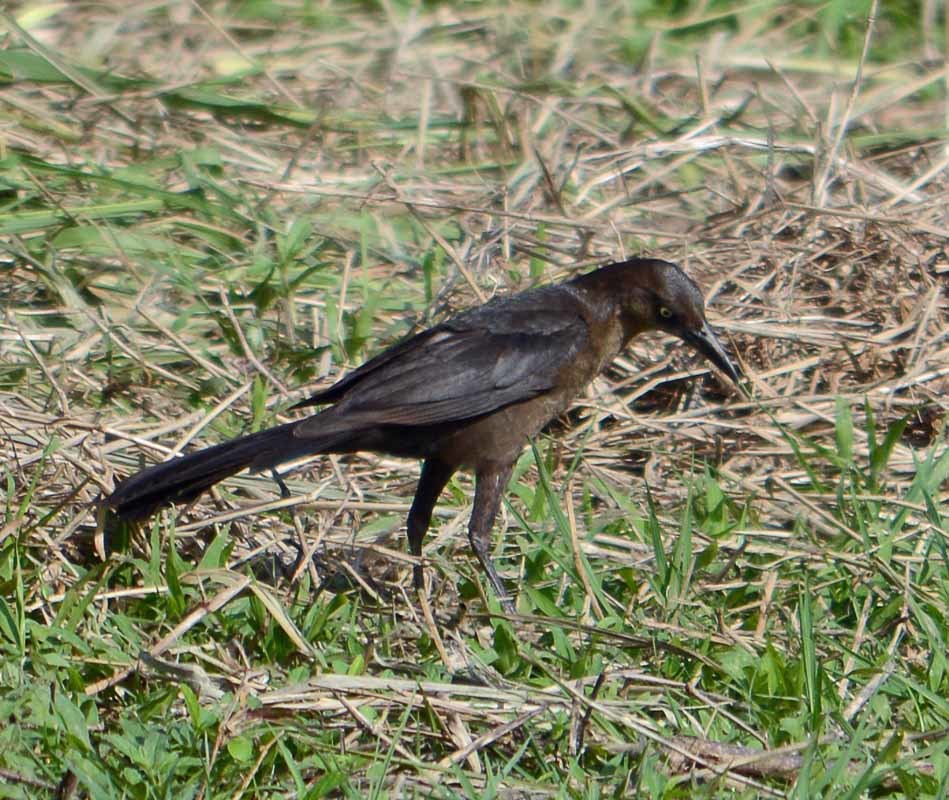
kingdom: Animalia
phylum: Chordata
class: Aves
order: Passeriformes
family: Icteridae
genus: Quiscalus
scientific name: Quiscalus mexicanus
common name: Great-tailed grackle
